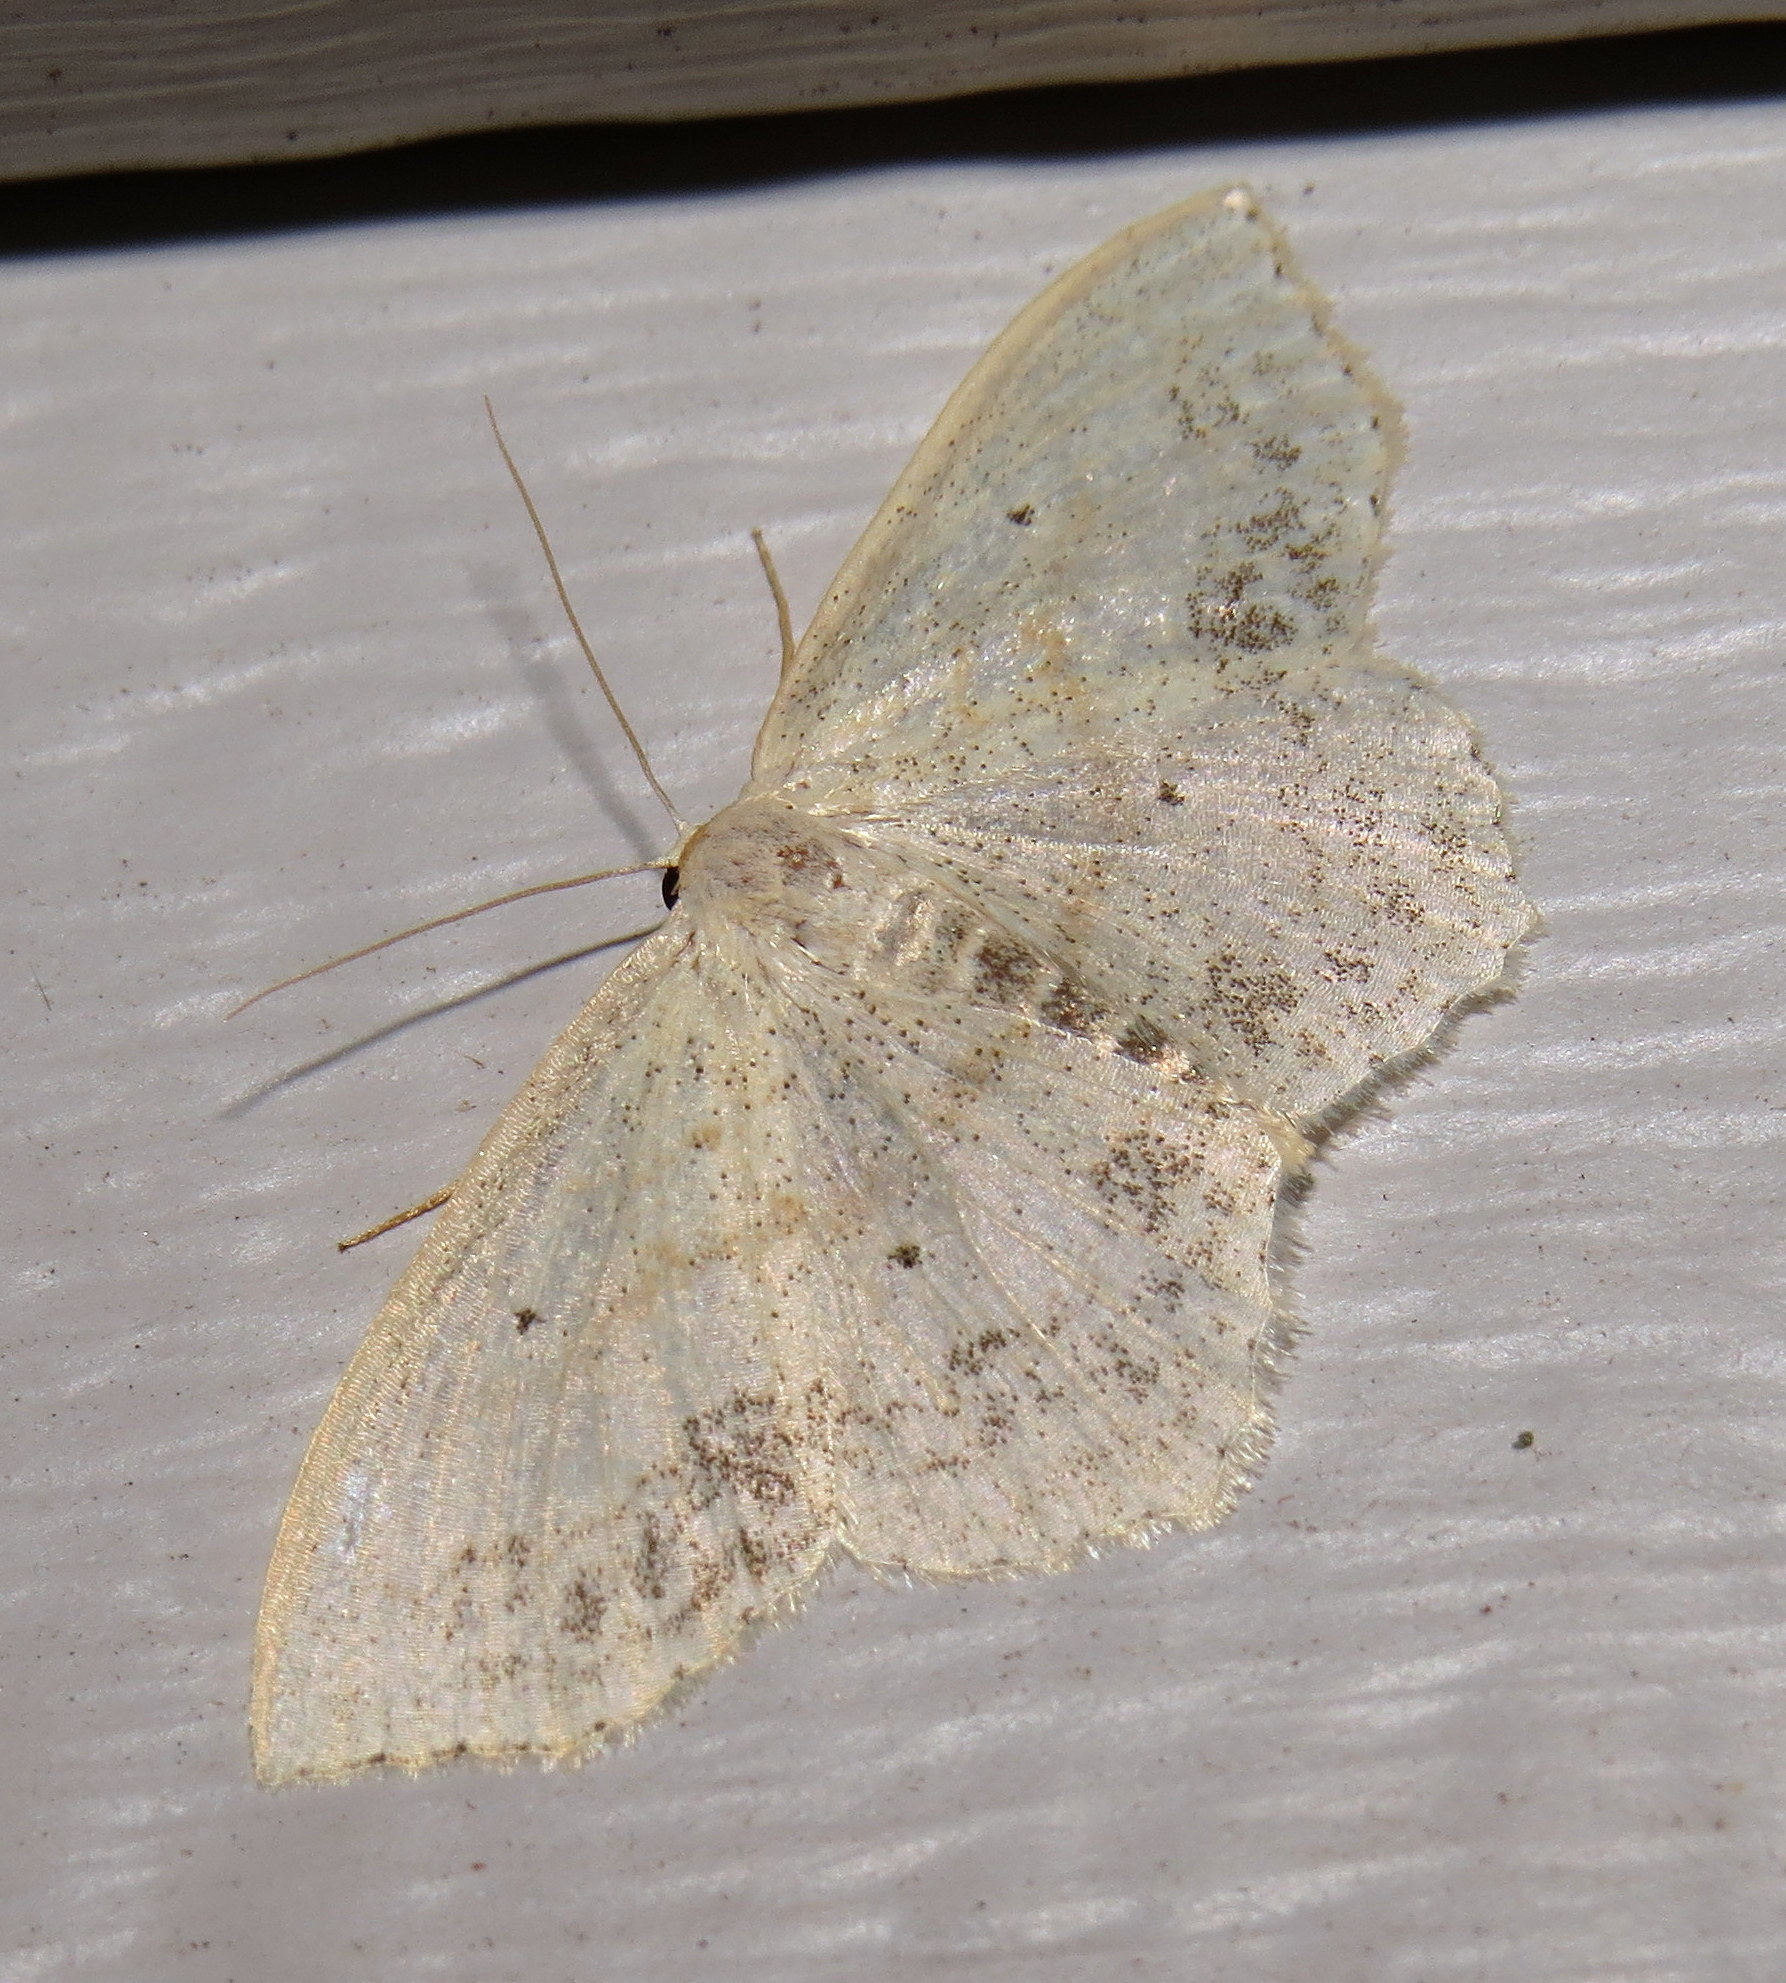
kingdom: Animalia
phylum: Arthropoda
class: Insecta
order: Lepidoptera
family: Geometridae
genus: Scopula
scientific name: Scopula limboundata
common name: Large lace border
